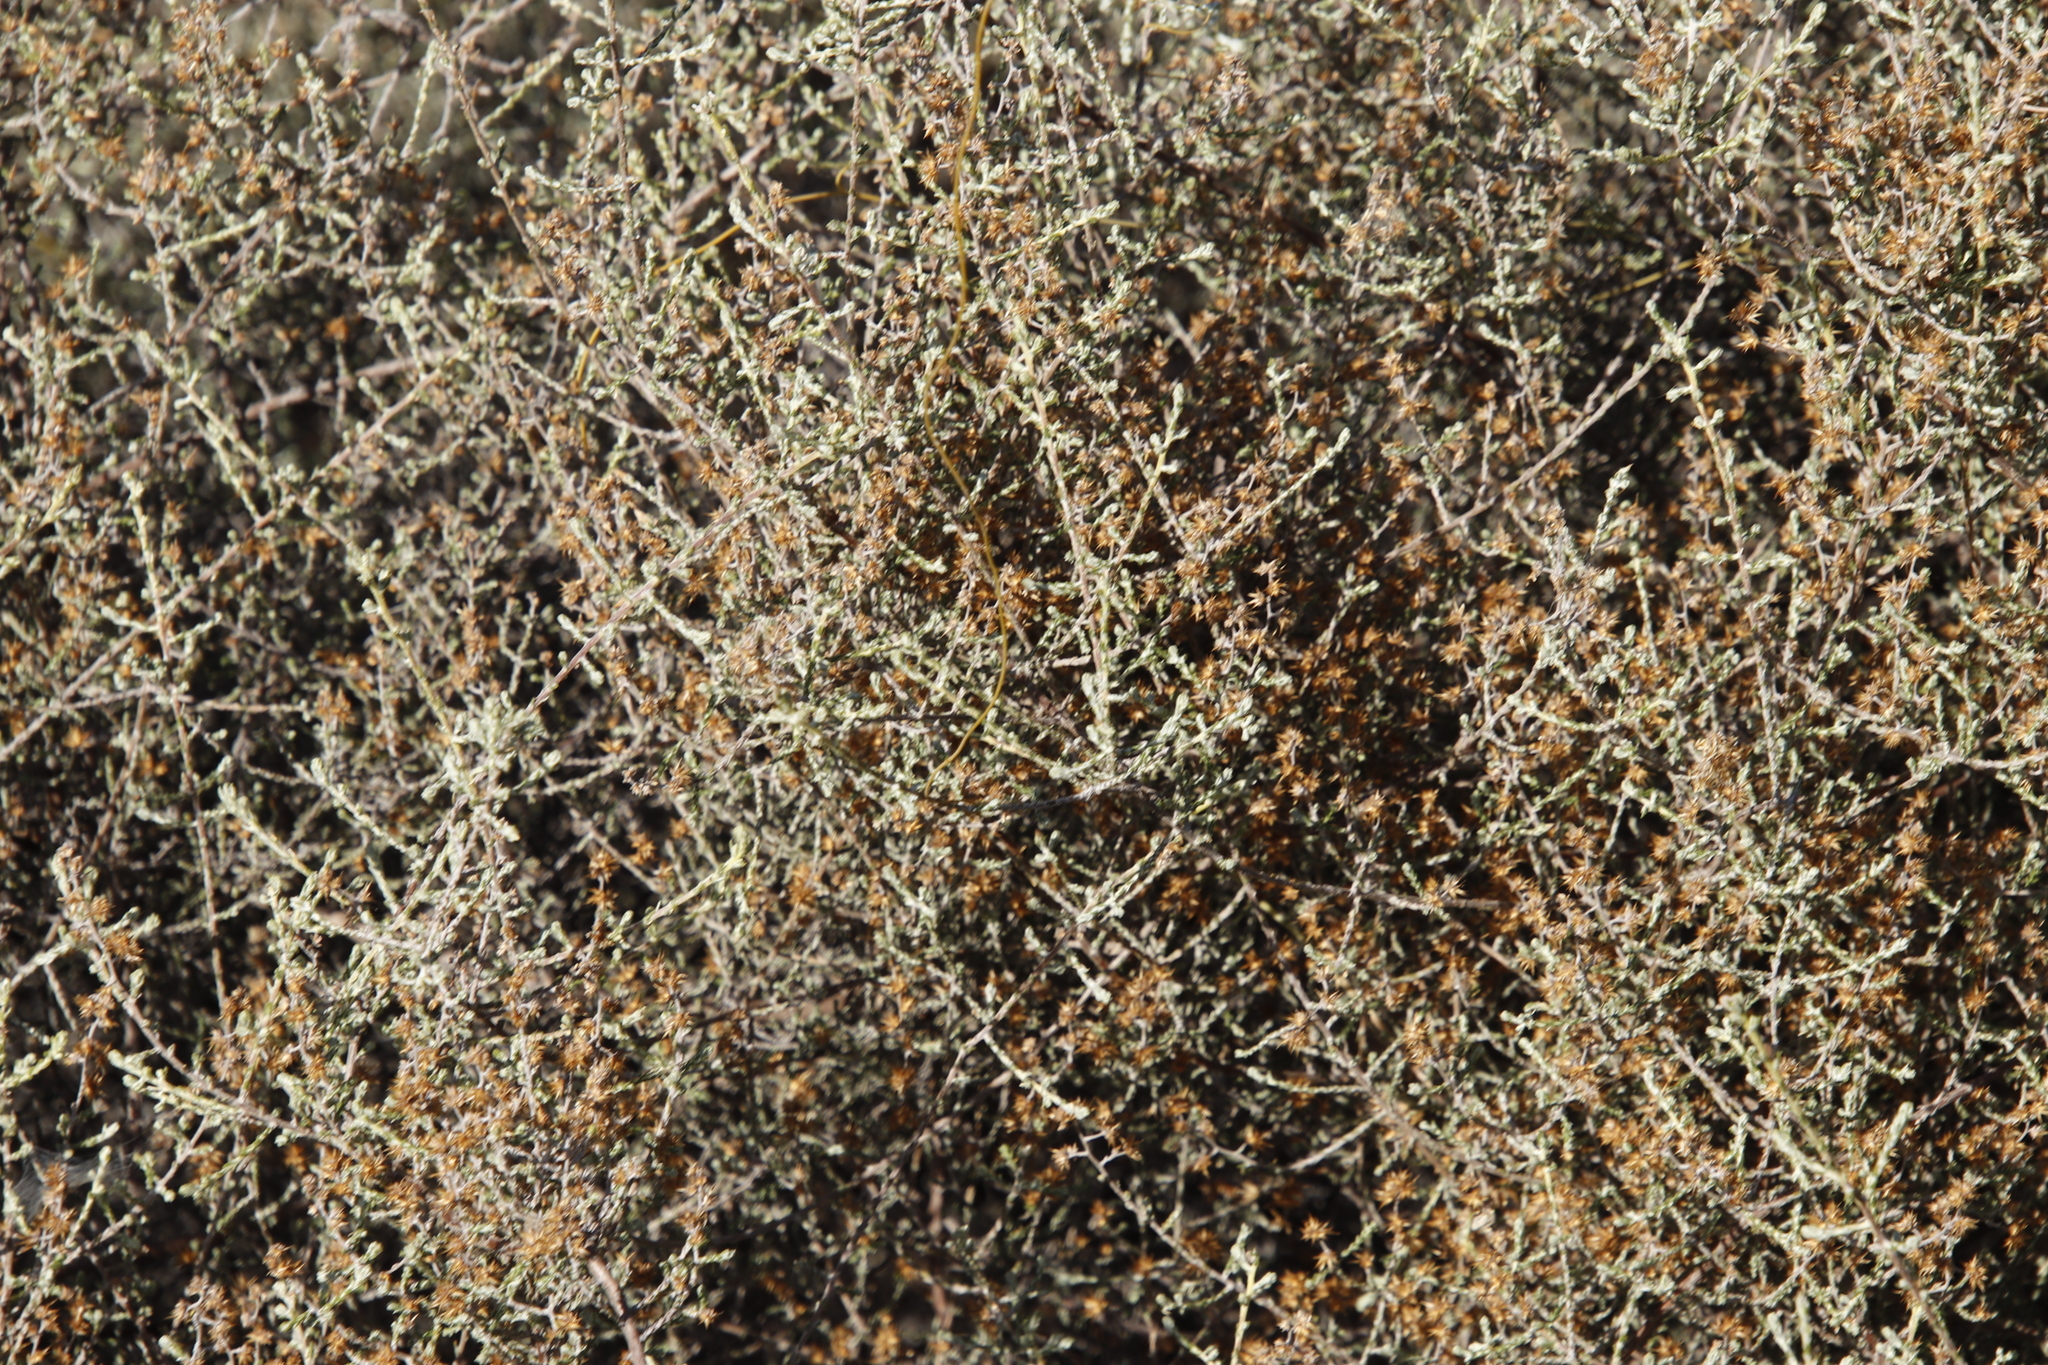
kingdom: Plantae
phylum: Tracheophyta
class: Magnoliopsida
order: Asterales
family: Asteraceae
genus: Seriphium
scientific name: Seriphium plumosum
